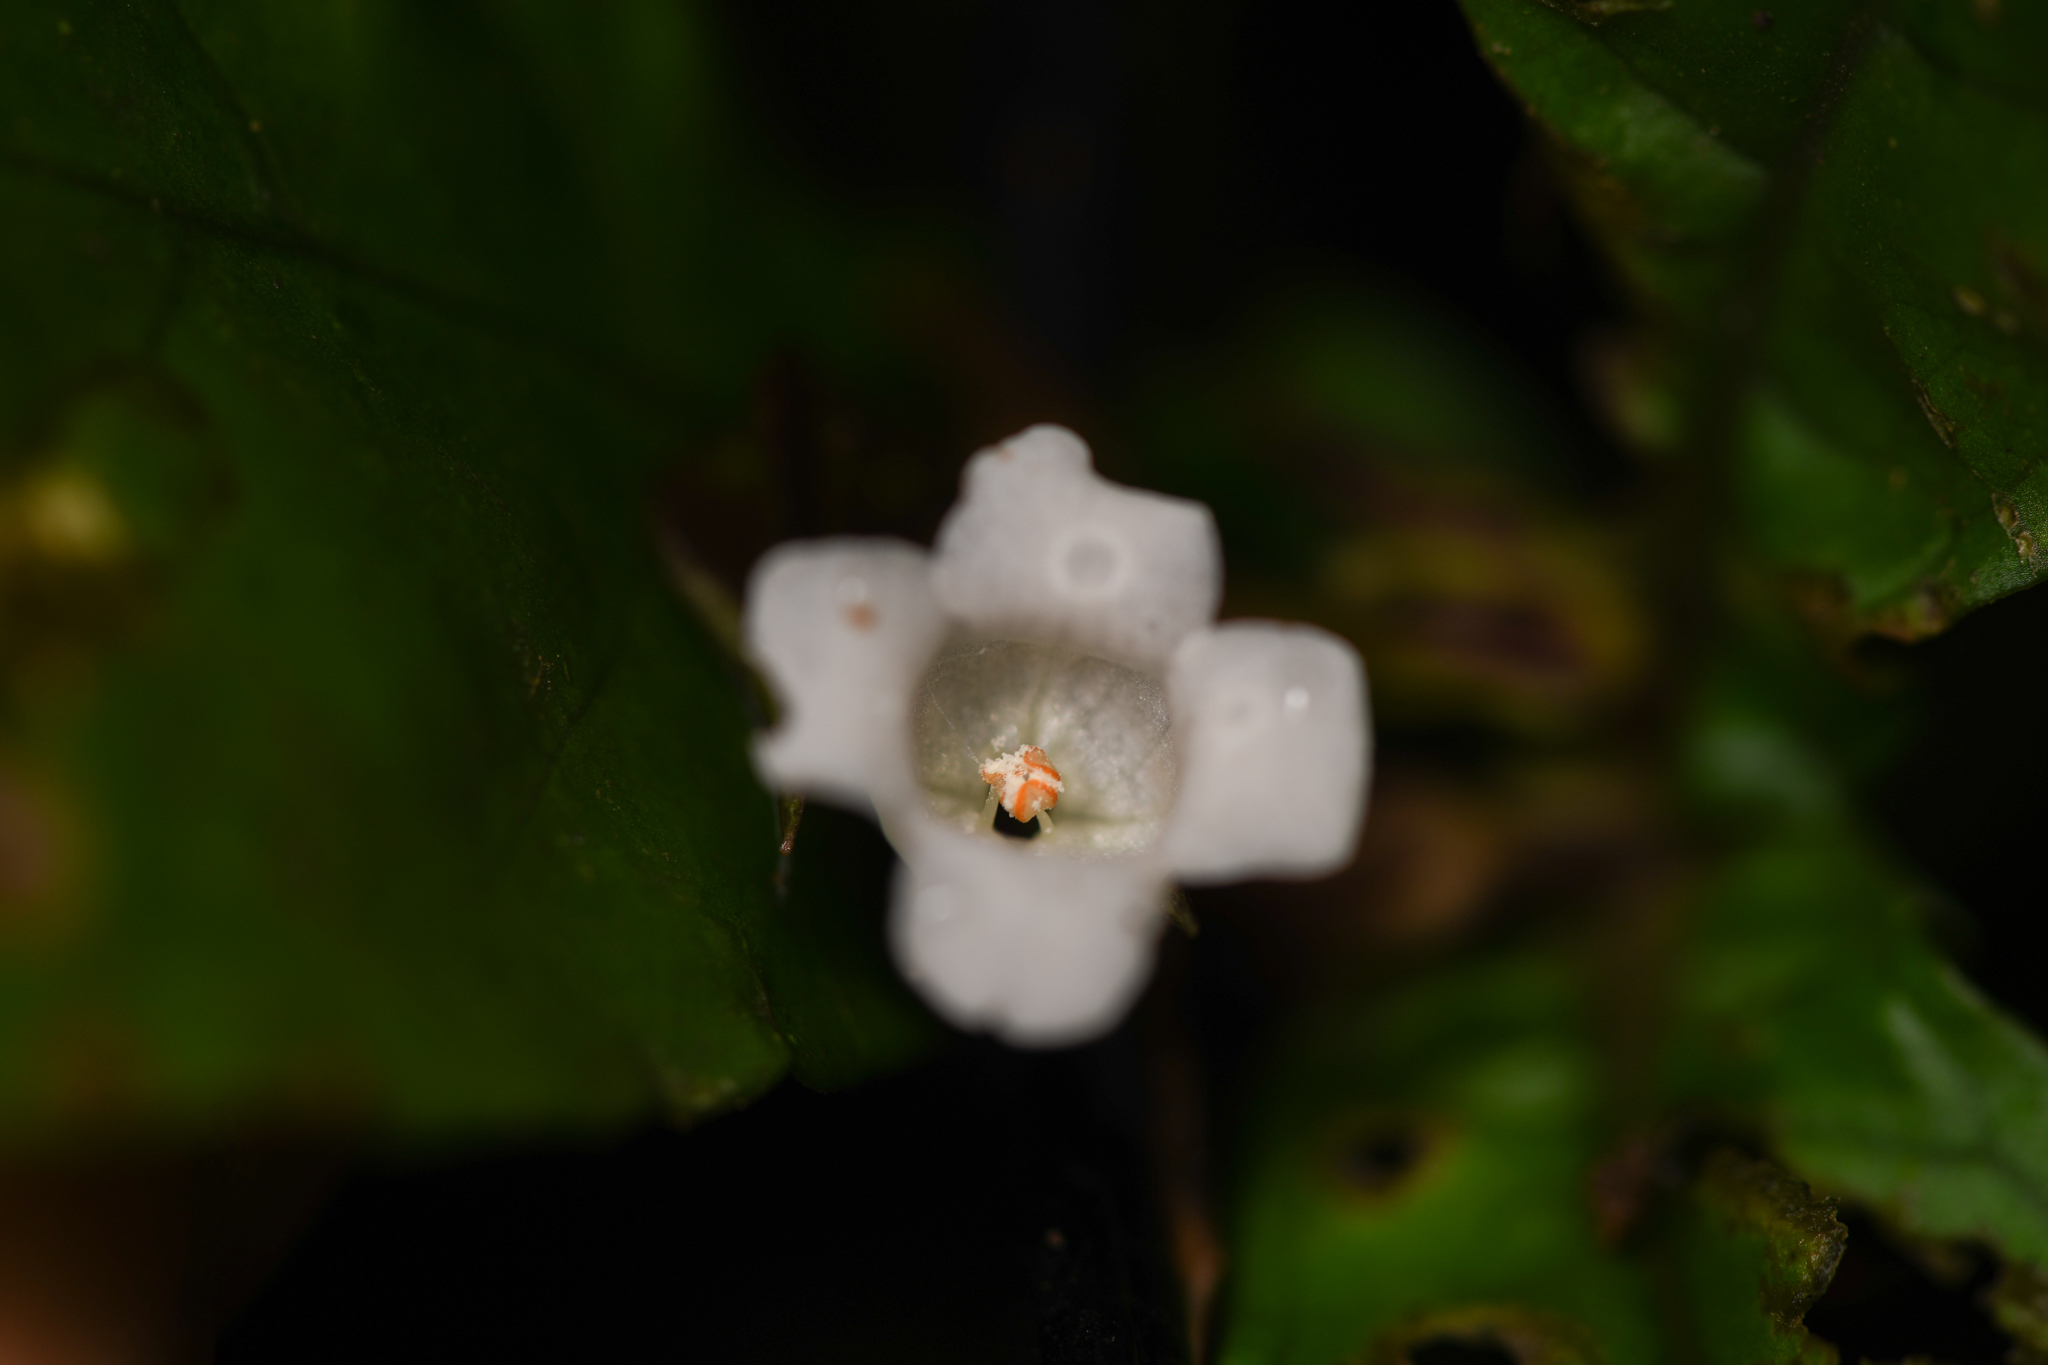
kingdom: Plantae
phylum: Tracheophyta
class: Magnoliopsida
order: Lamiales
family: Gesneriaceae
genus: Napeanthus
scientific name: Napeanthus bracteatus
